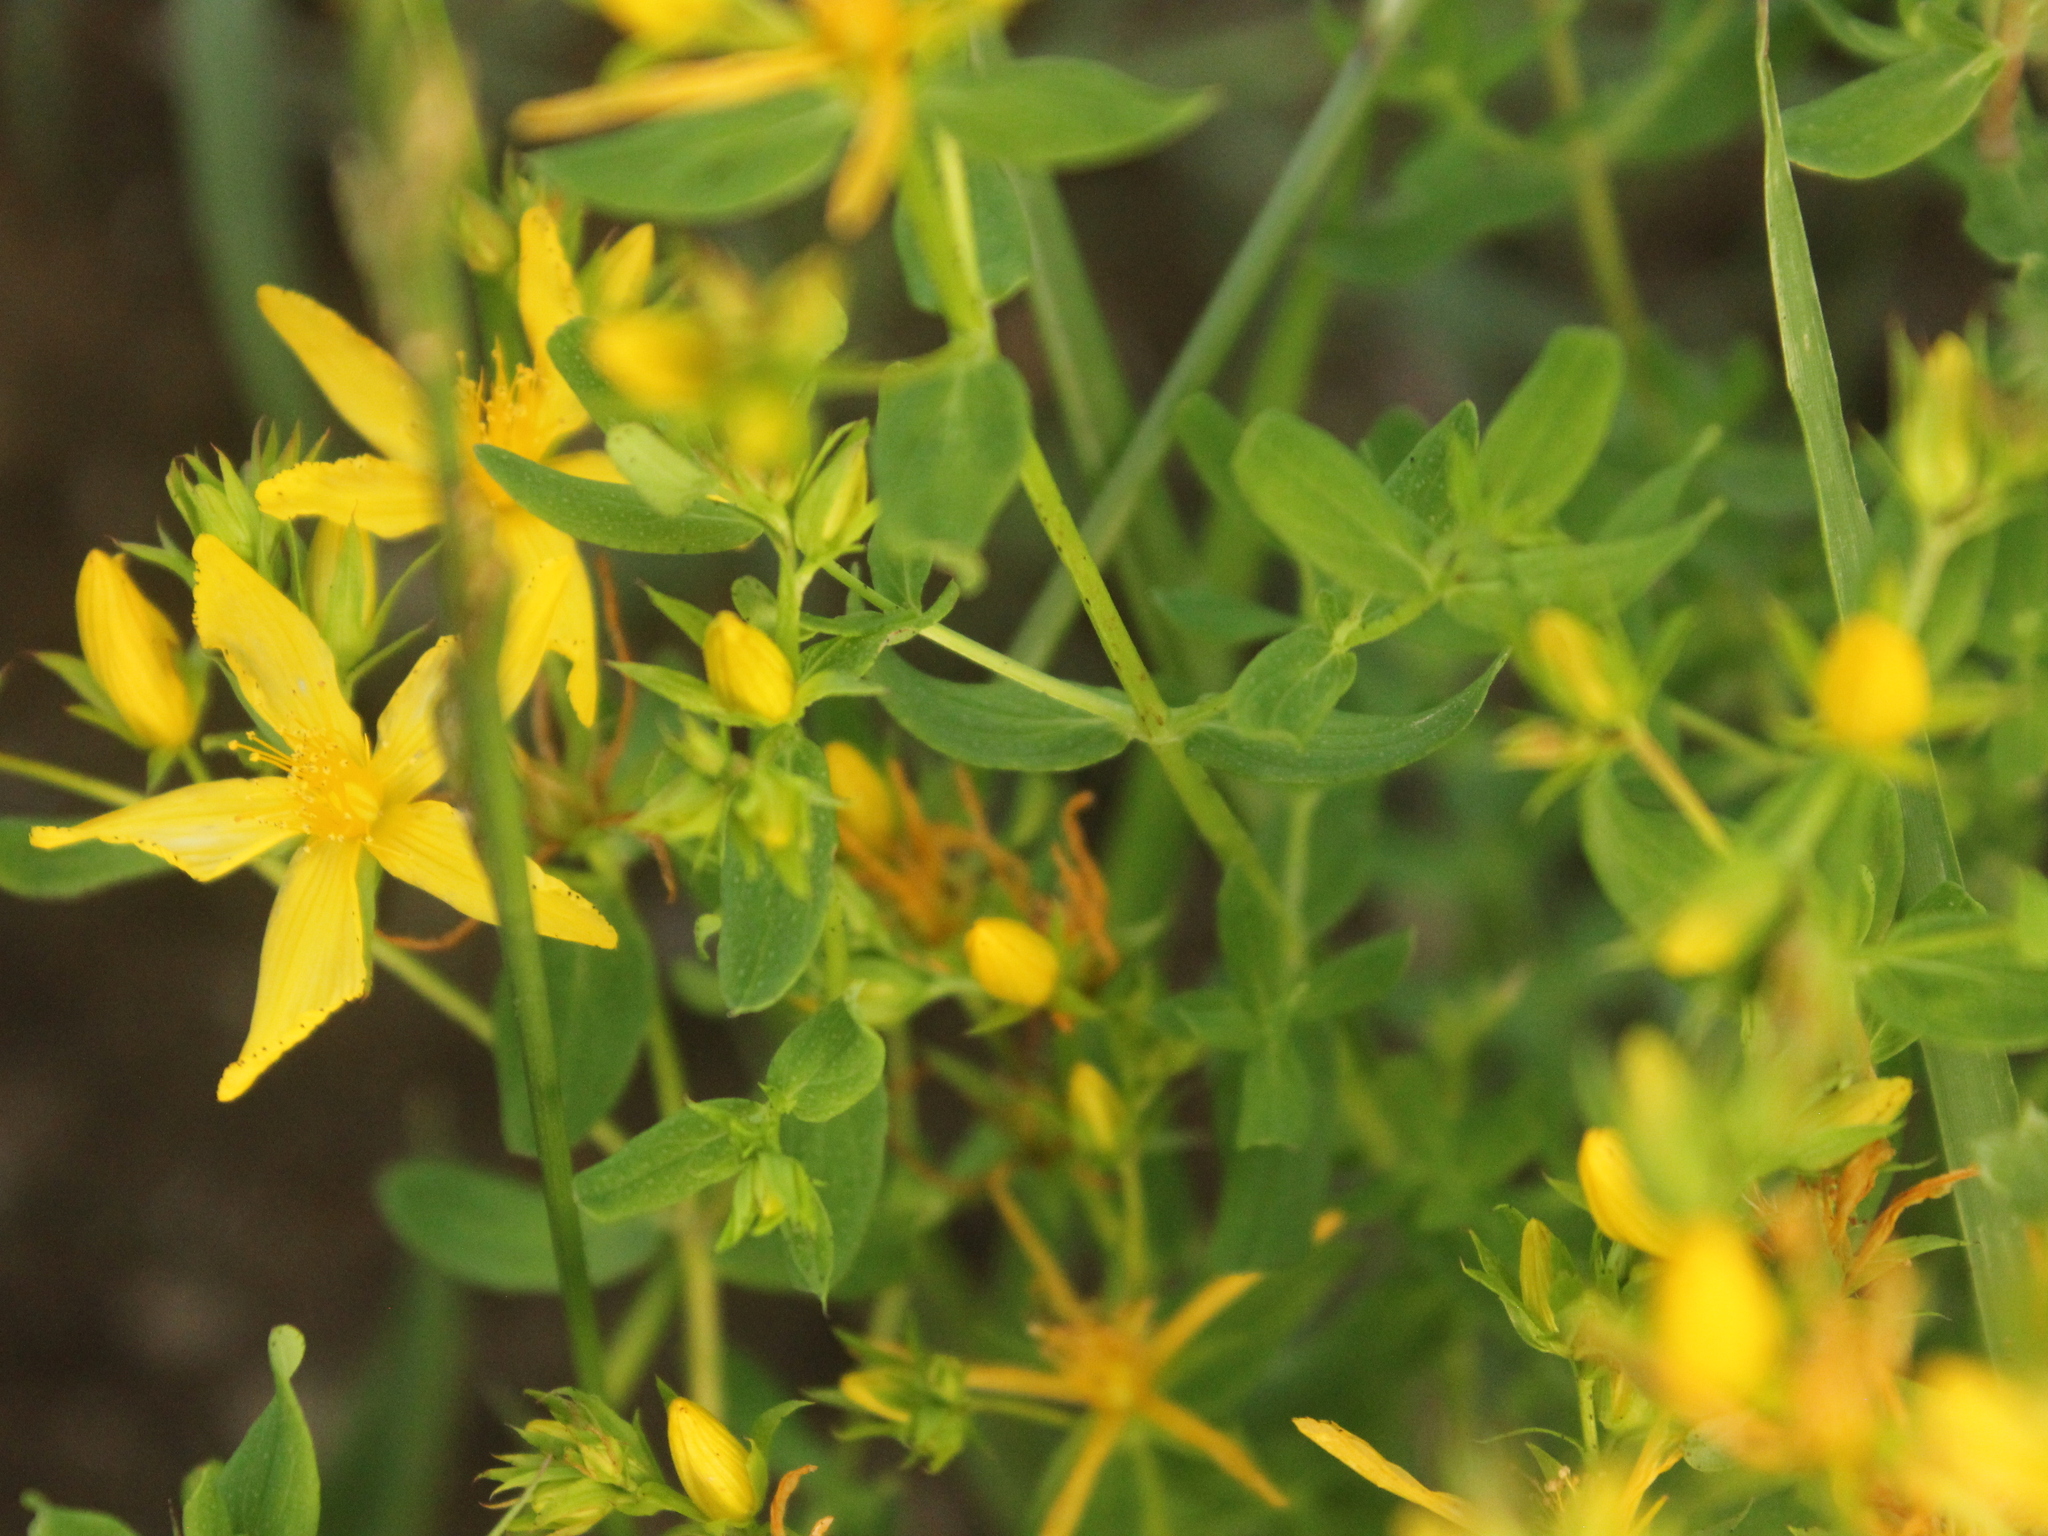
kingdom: Plantae
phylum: Tracheophyta
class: Magnoliopsida
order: Malpighiales
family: Hypericaceae
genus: Hypericum
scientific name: Hypericum perforatum
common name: Common st. johnswort
